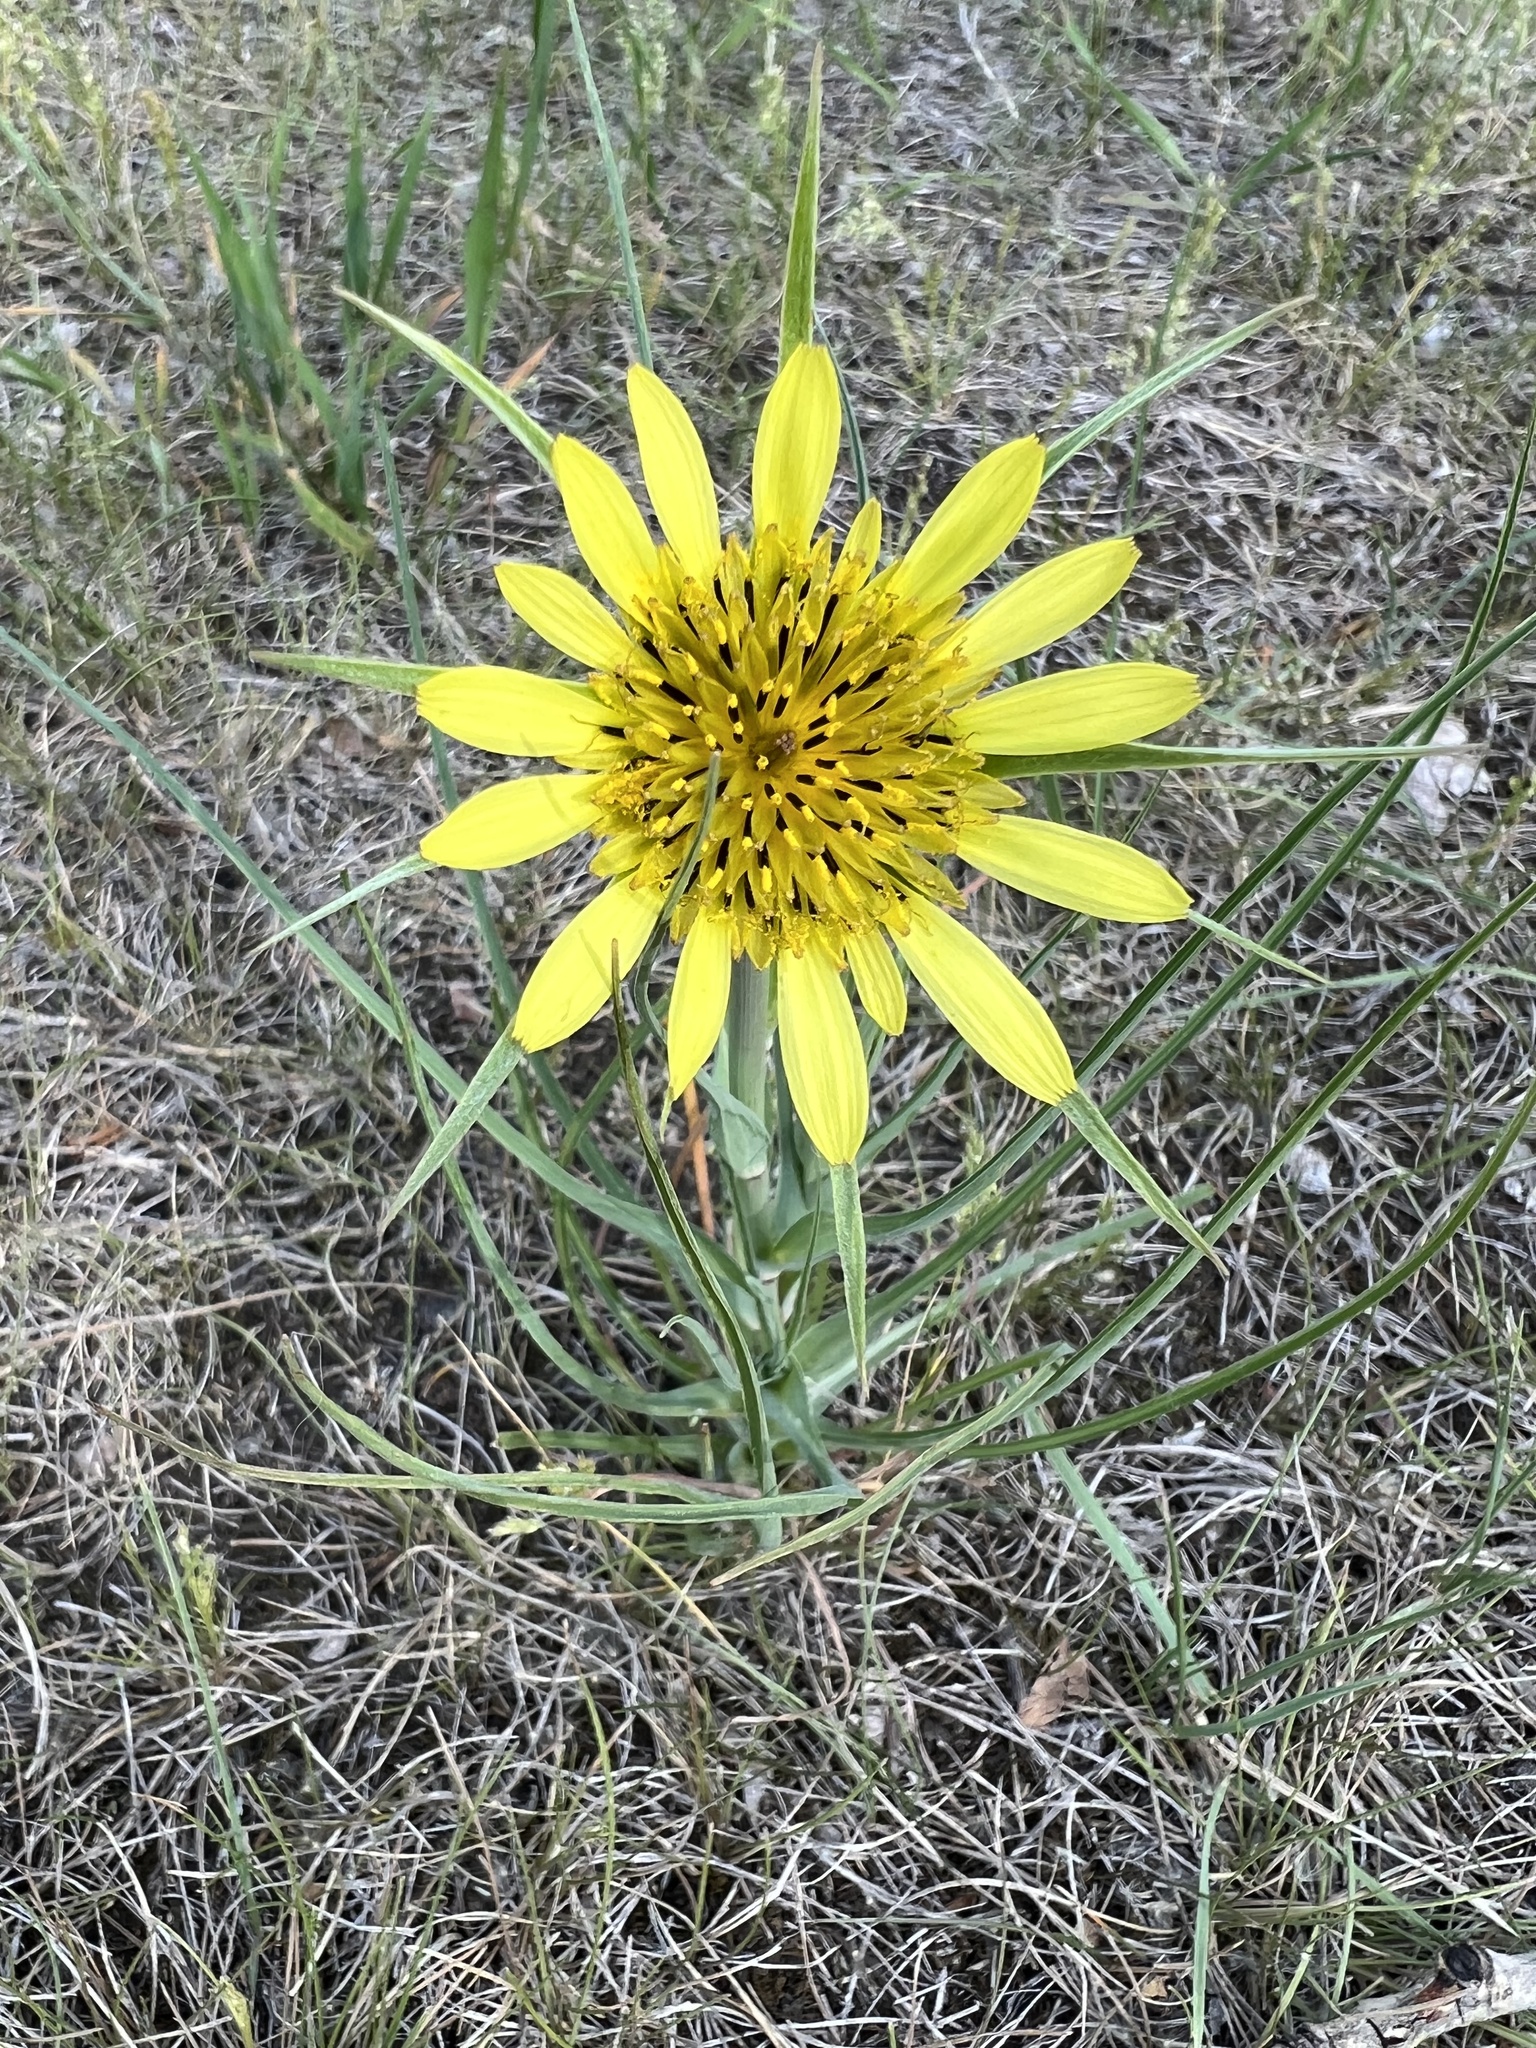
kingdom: Plantae
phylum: Tracheophyta
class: Magnoliopsida
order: Asterales
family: Asteraceae
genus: Tragopogon
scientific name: Tragopogon dubius
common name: Yellow salsify
